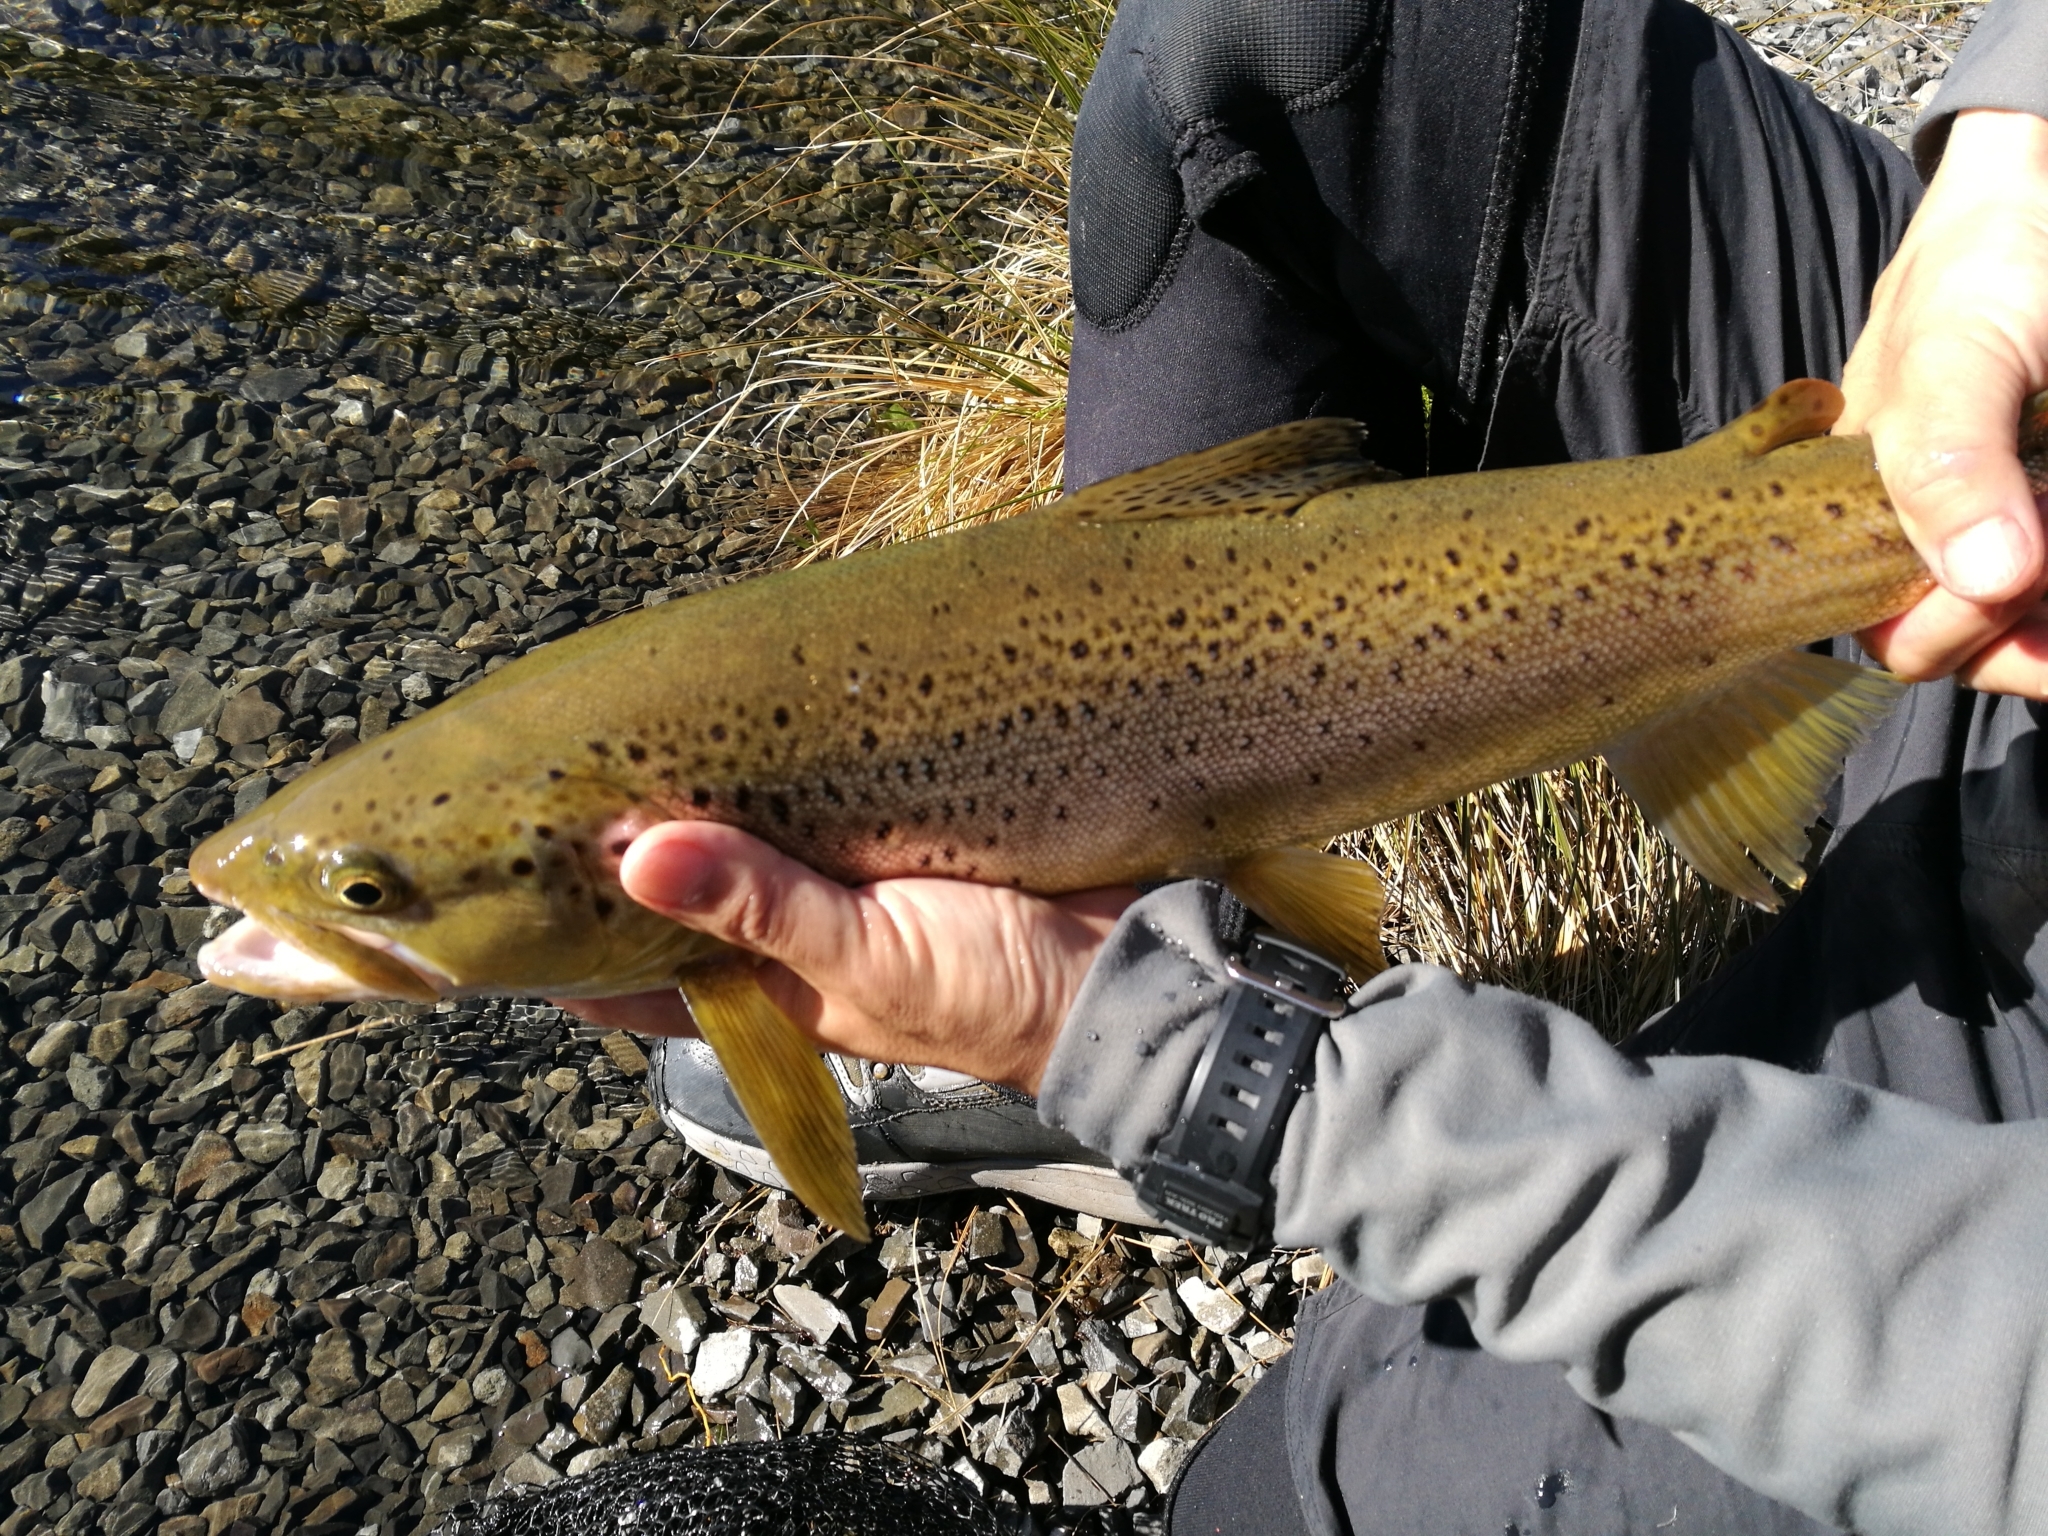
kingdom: Animalia
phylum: Chordata
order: Salmoniformes
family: Salmonidae
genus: Salmo
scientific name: Salmo trutta
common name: Brown trout
